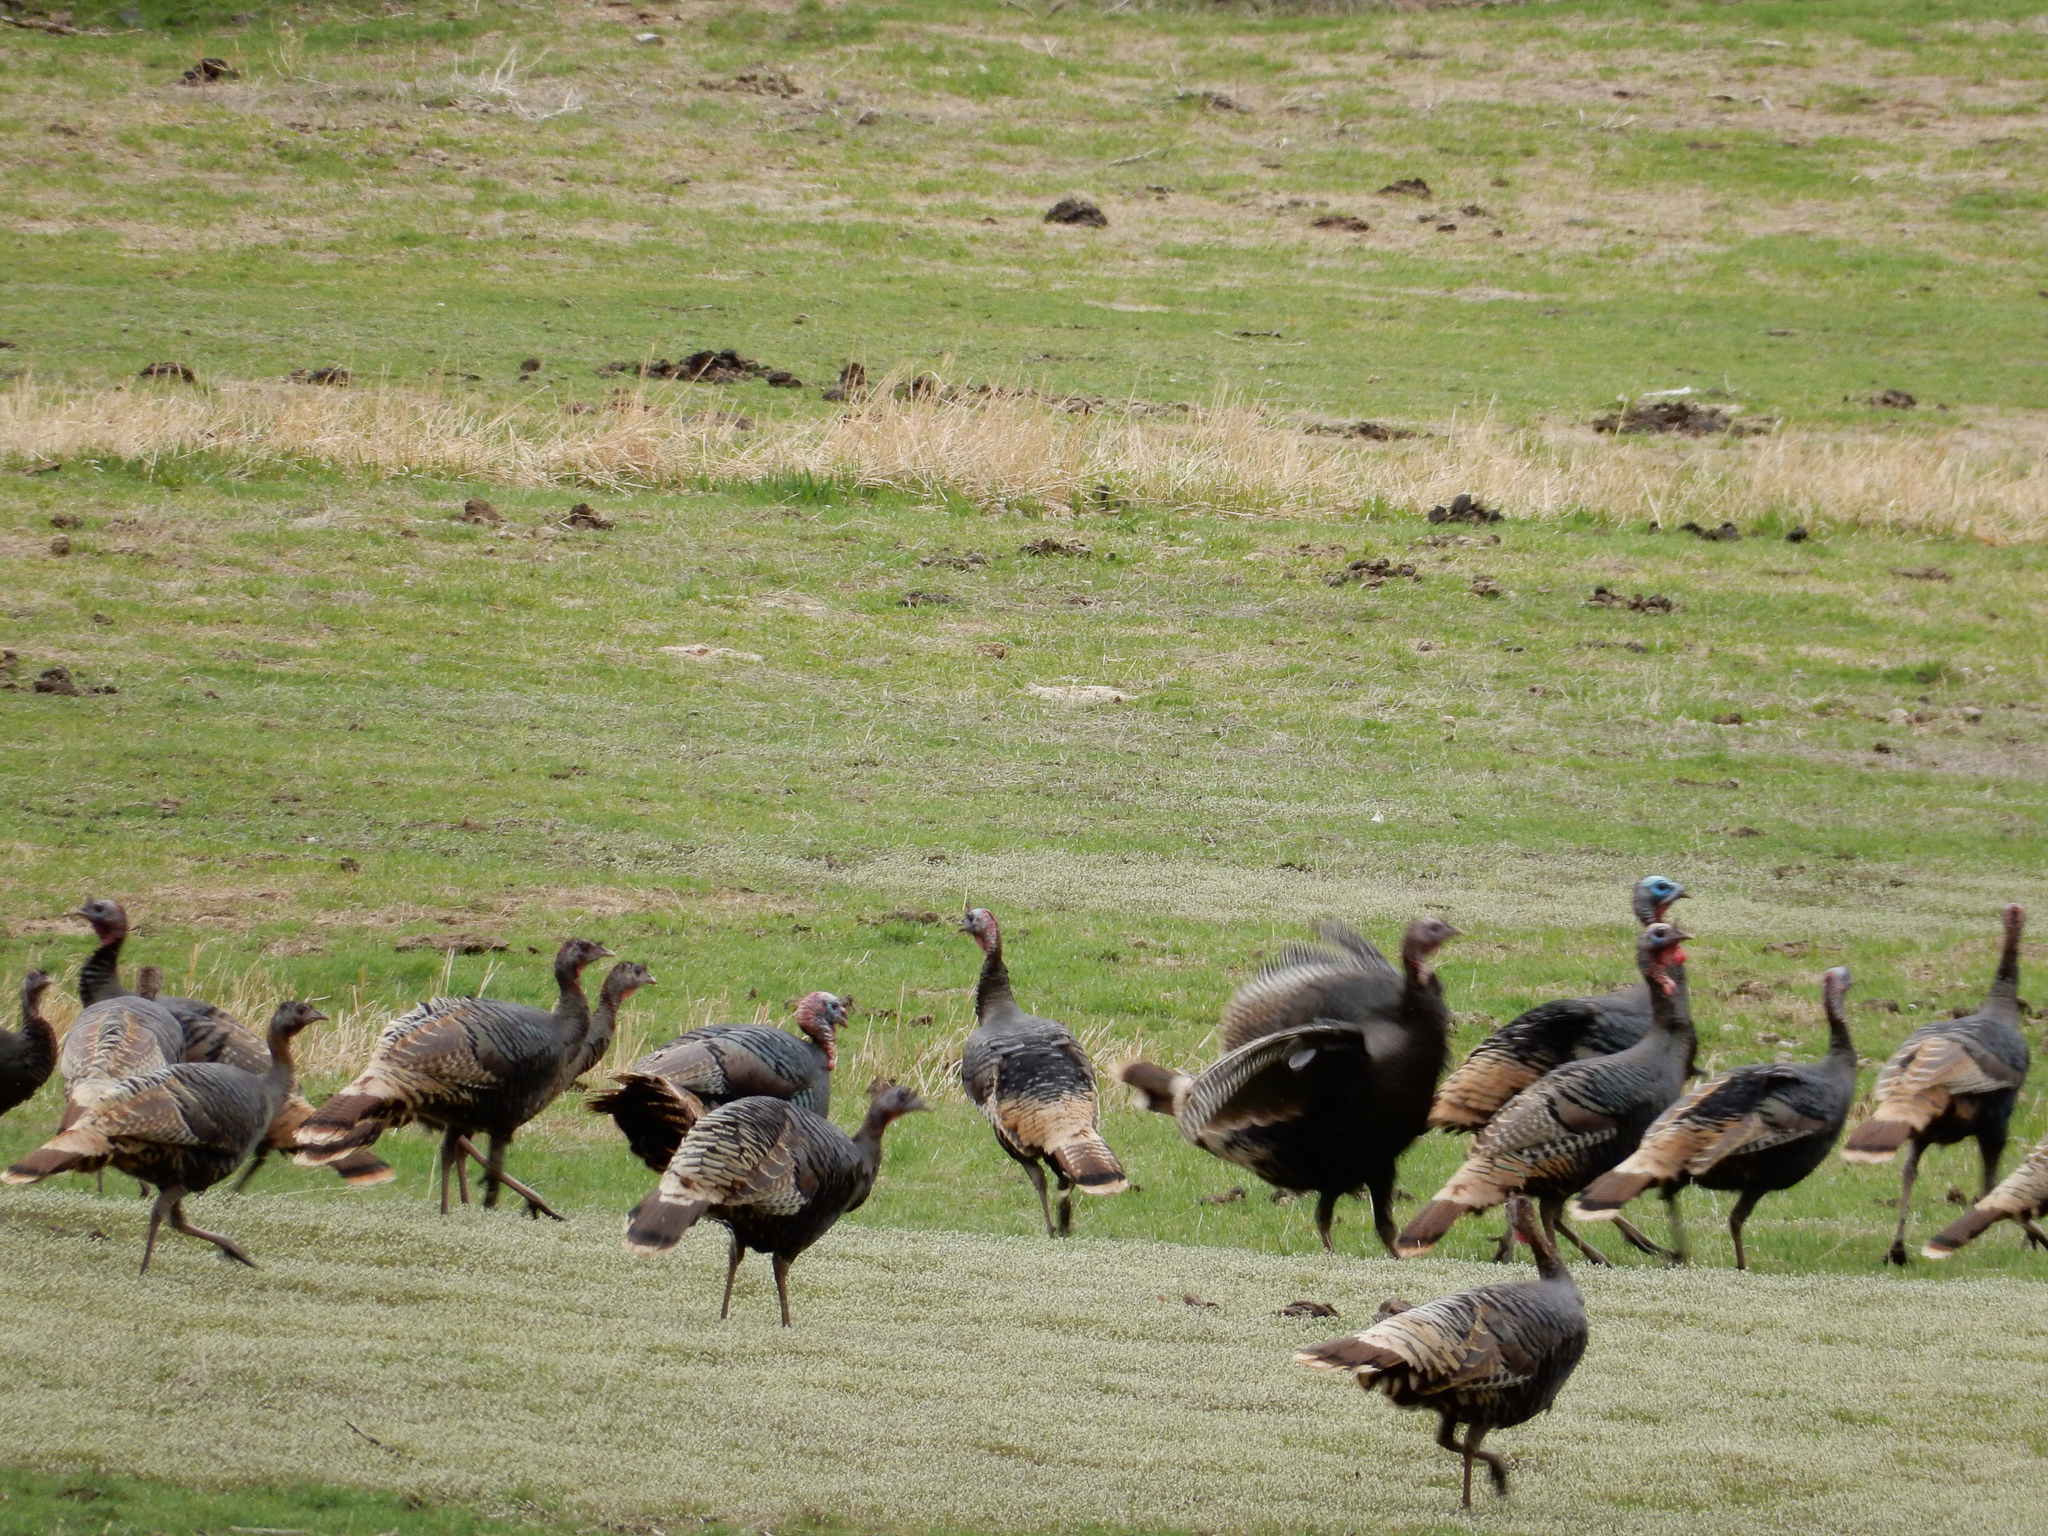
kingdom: Animalia
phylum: Chordata
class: Aves
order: Galliformes
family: Phasianidae
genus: Meleagris
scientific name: Meleagris gallopavo
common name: Wild turkey
